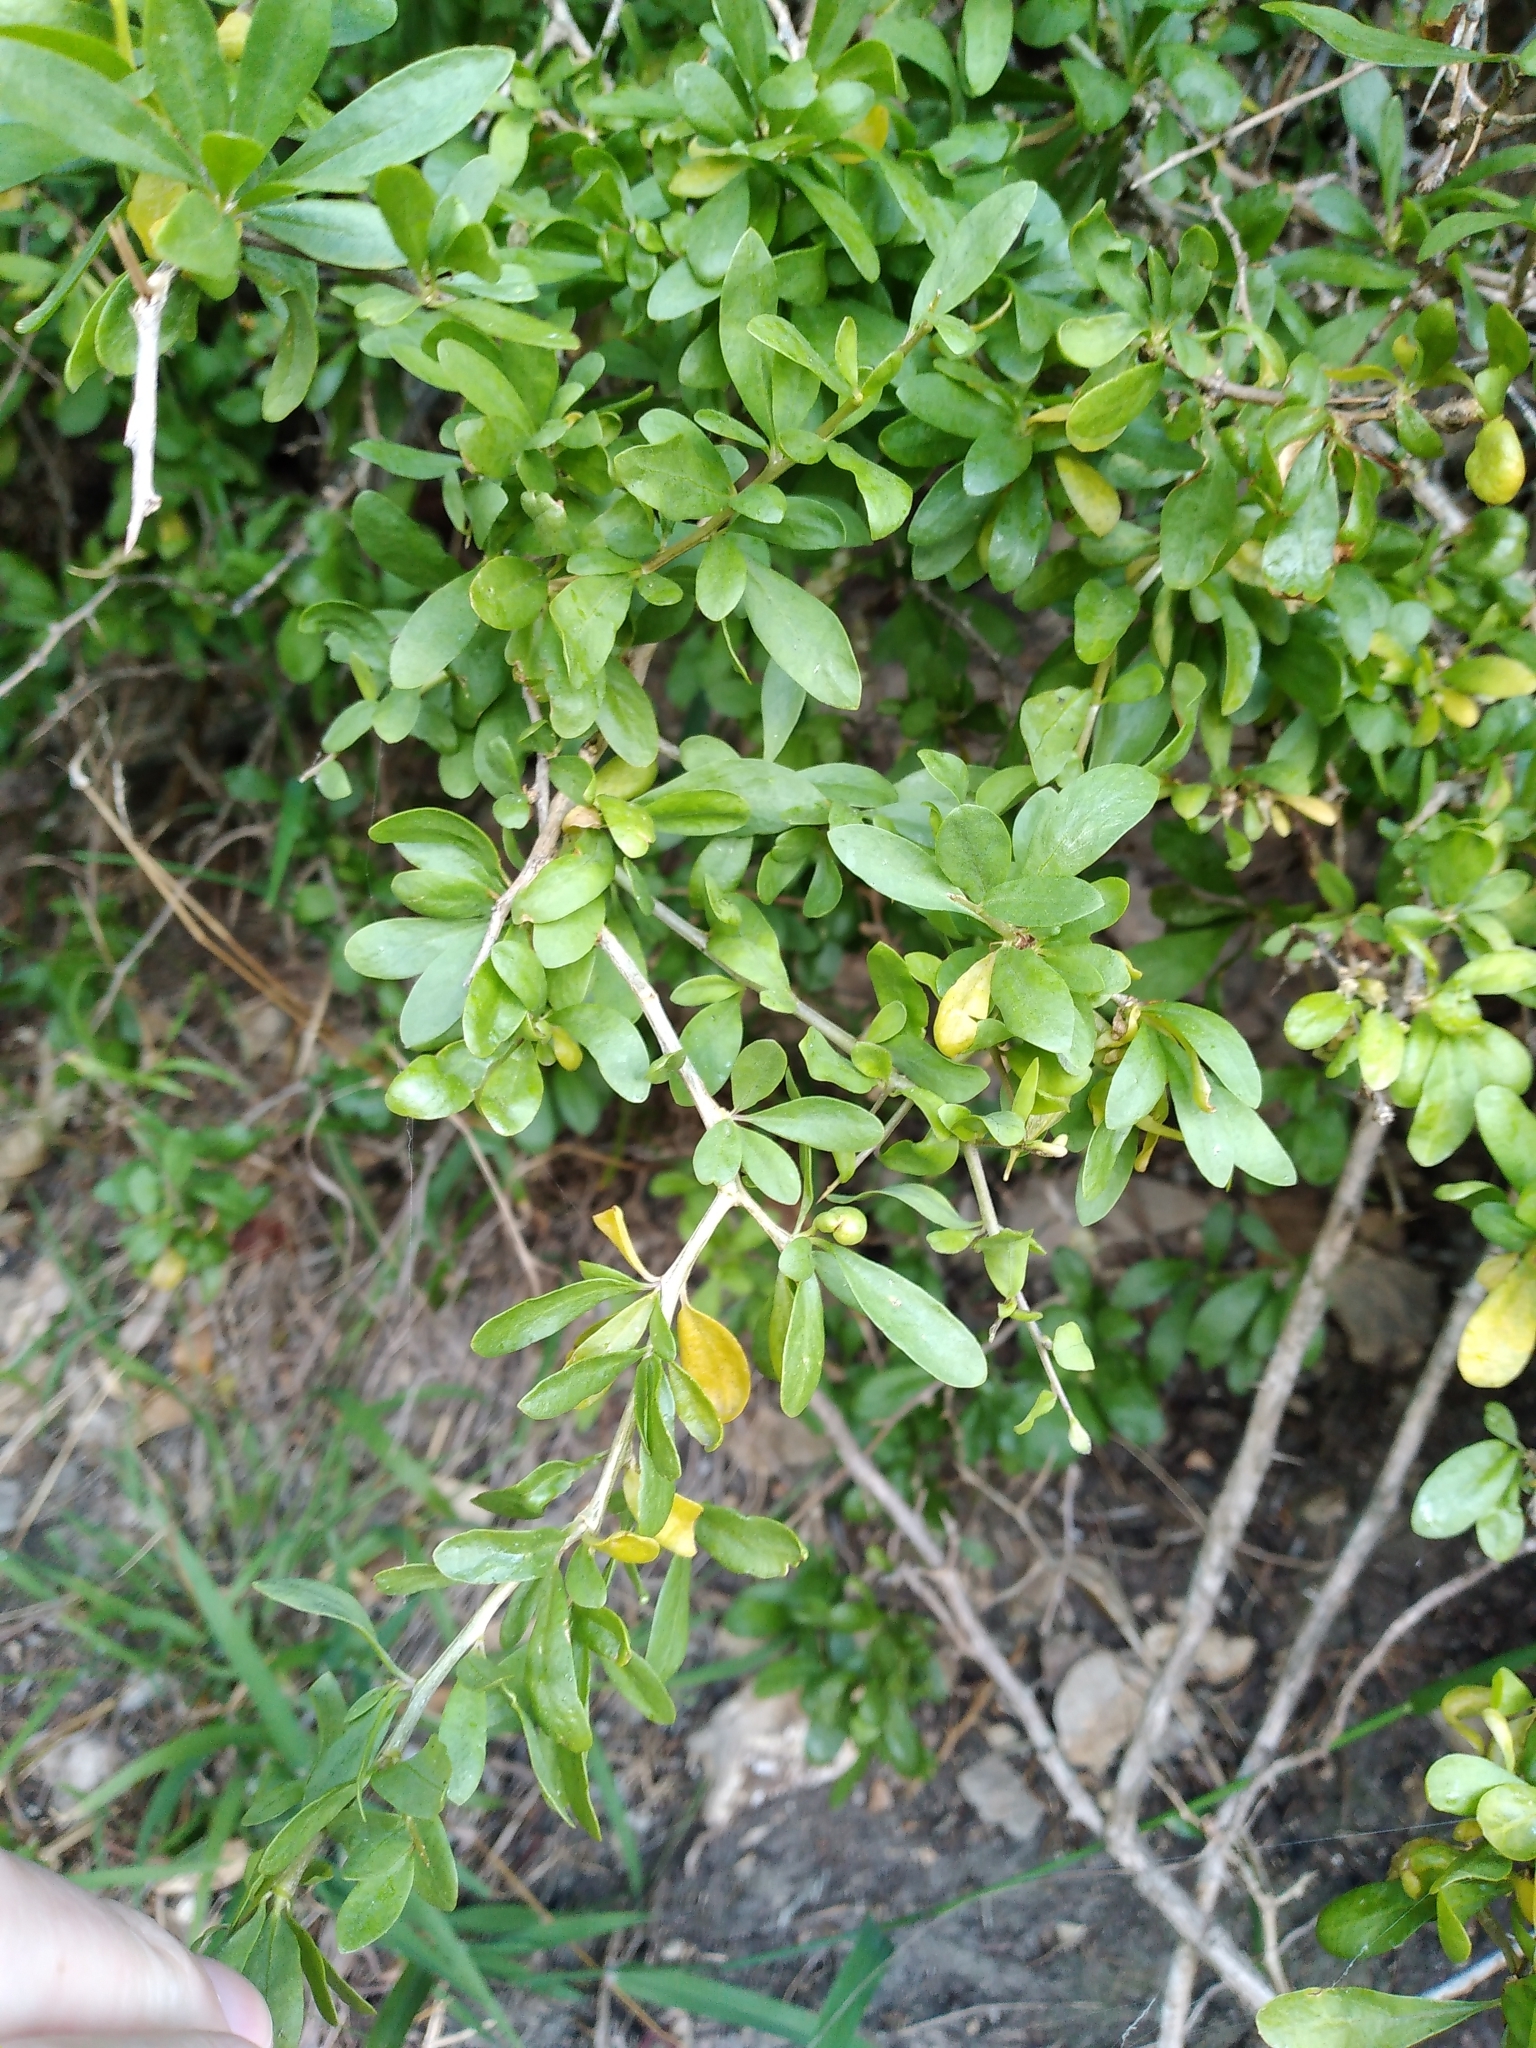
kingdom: Plantae
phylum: Tracheophyta
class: Magnoliopsida
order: Solanales
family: Solanaceae
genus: Lycium
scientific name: Lycium ferocissimum
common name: African boxthorn
